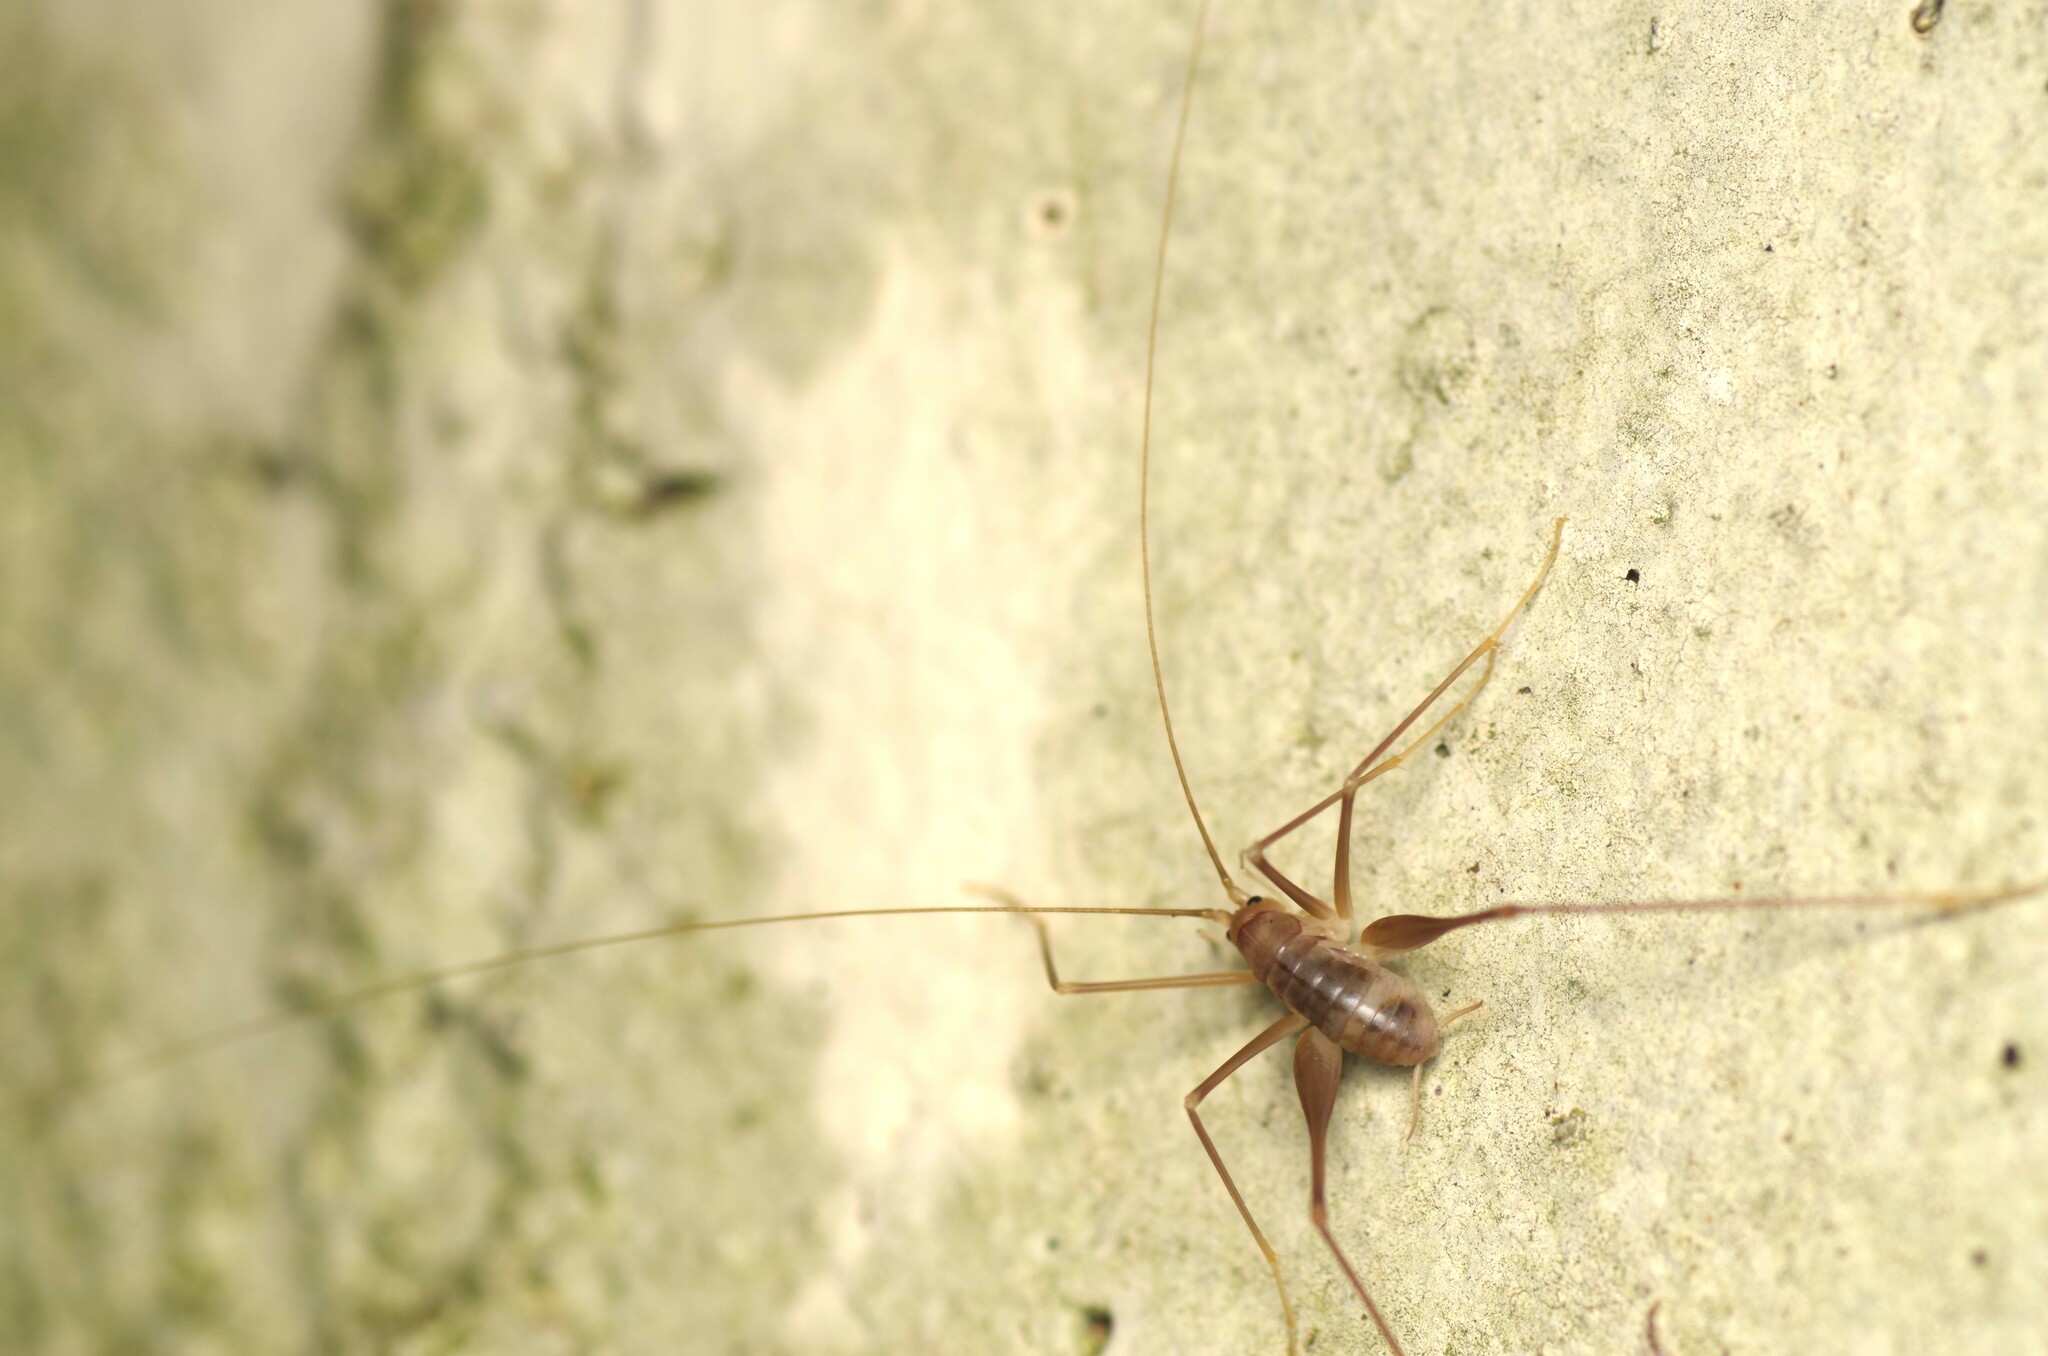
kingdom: Animalia
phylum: Arthropoda
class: Insecta
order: Orthoptera
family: Rhaphidophoridae
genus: Dolichopoda
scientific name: Dolichopoda linderii
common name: Languedoc cave-cricket
